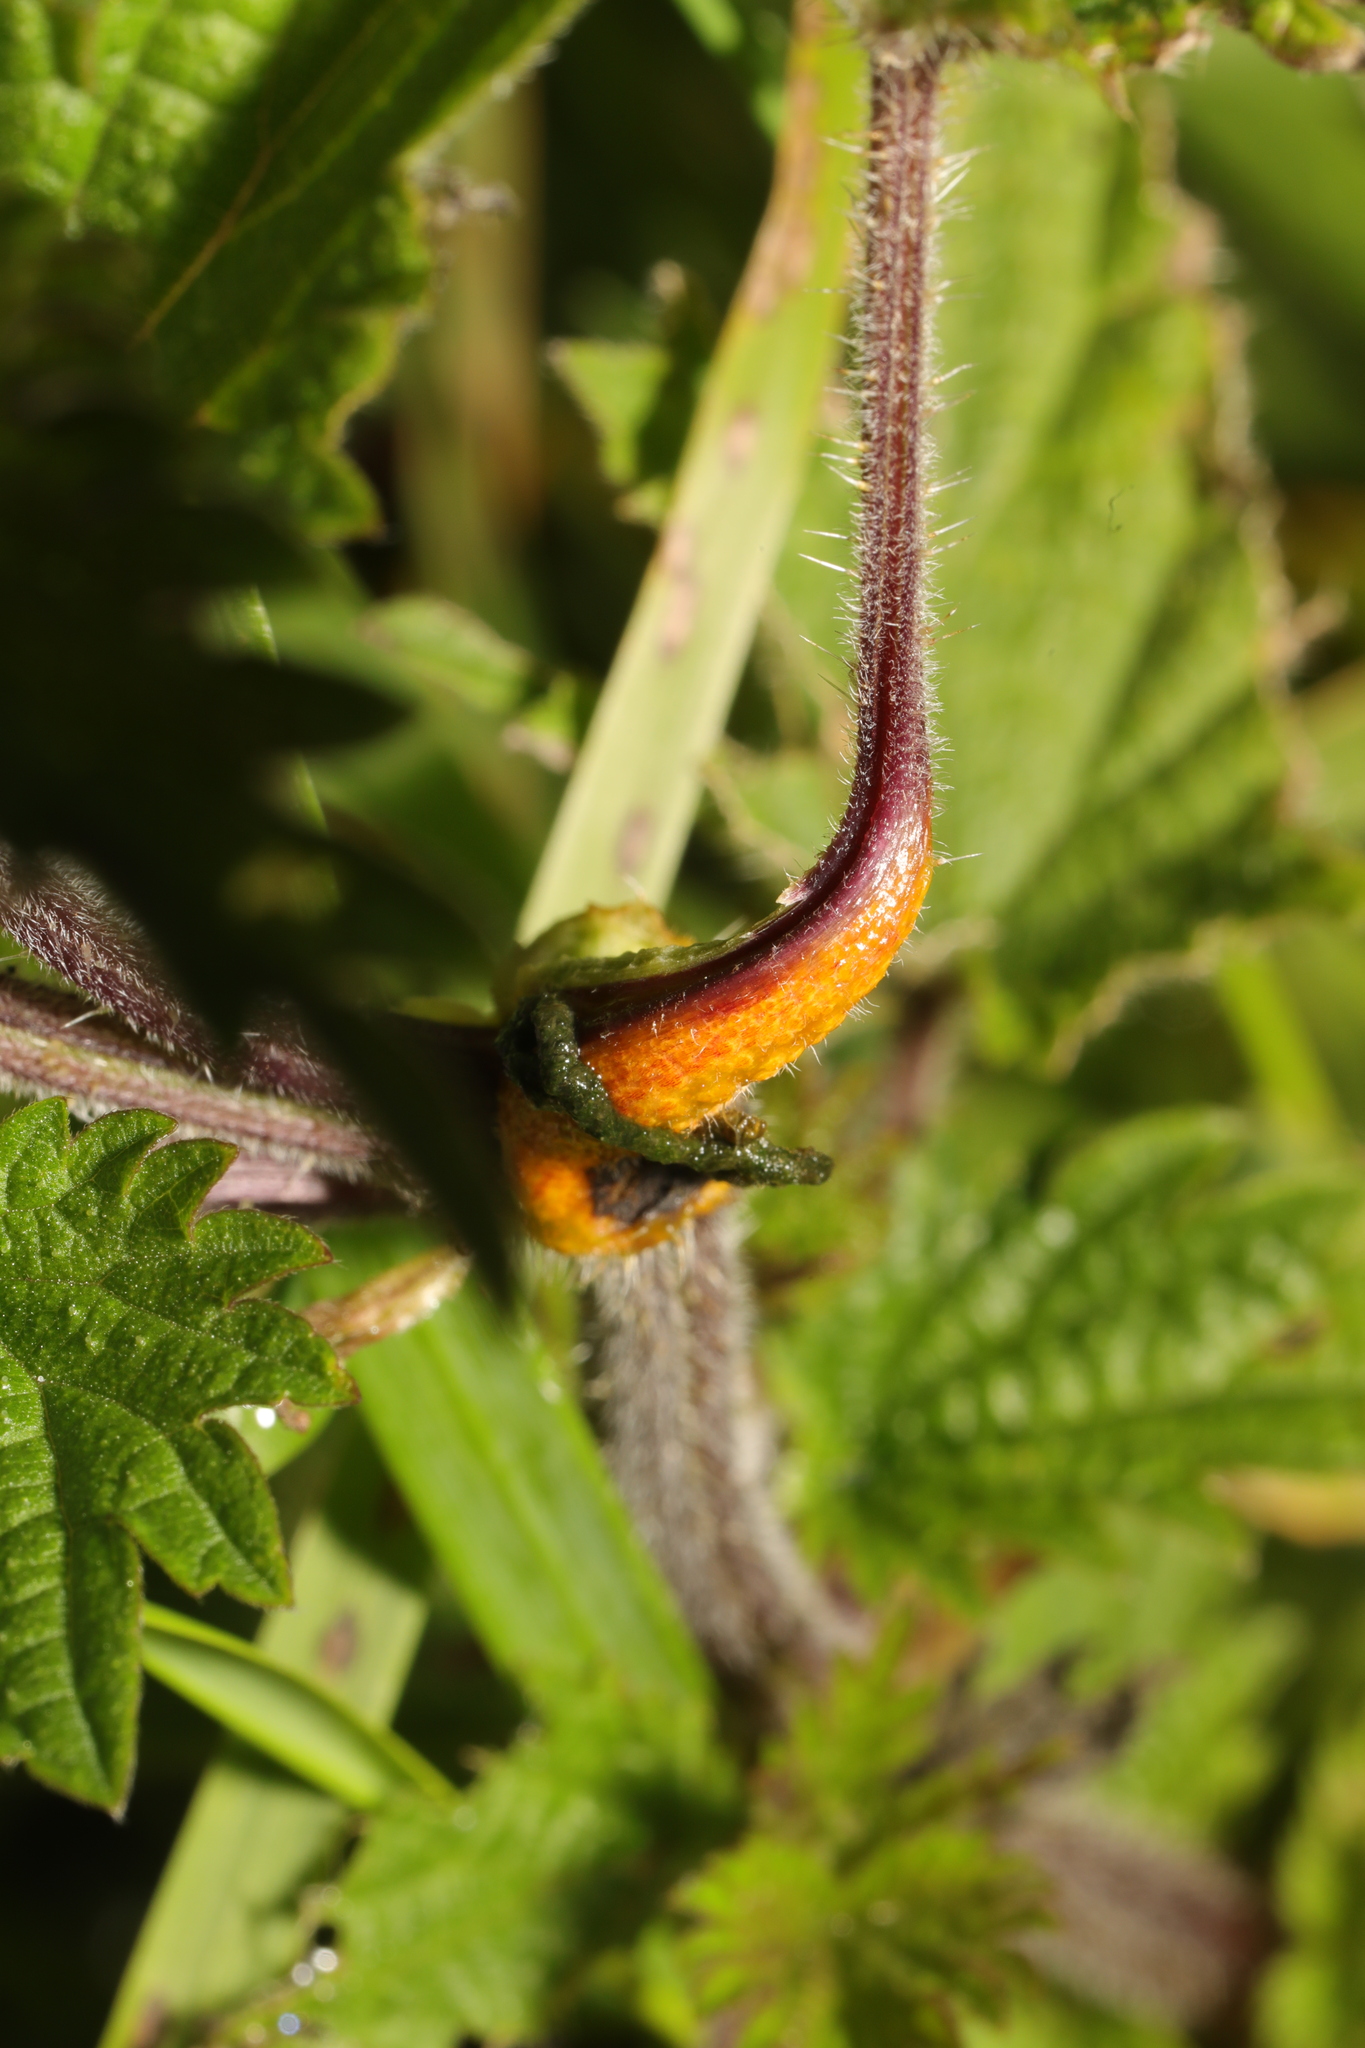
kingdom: Fungi
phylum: Basidiomycota
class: Pucciniomycetes
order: Pucciniales
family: Pucciniaceae
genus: Puccinia
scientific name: Puccinia urticata
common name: Nettle clustercup rust fungus
